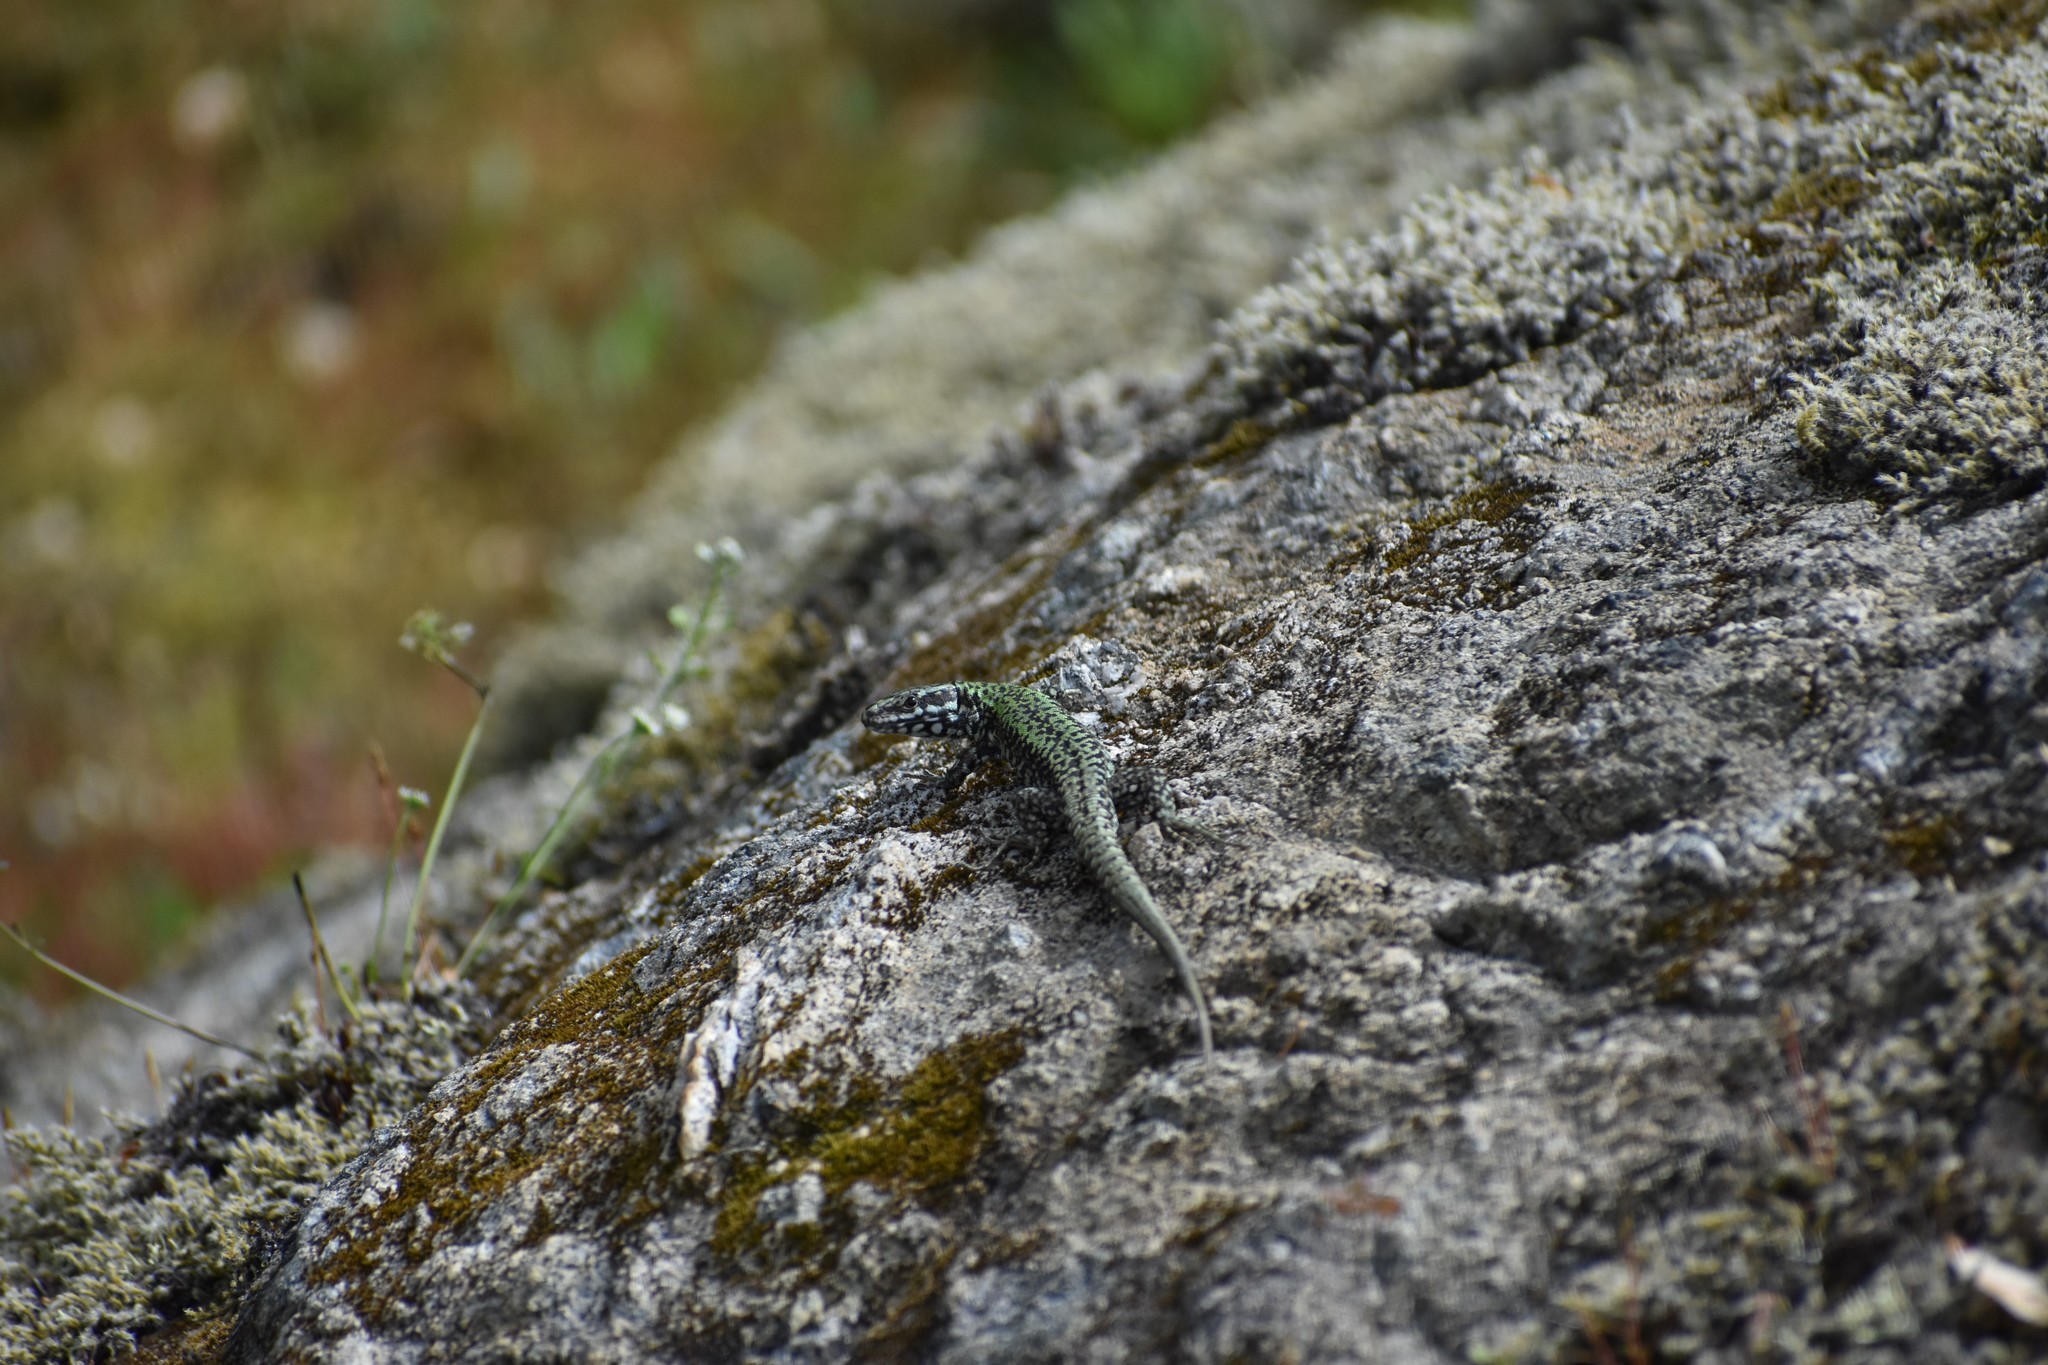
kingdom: Animalia
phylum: Chordata
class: Squamata
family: Lacertidae
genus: Podarcis
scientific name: Podarcis muralis
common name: Common wall lizard
